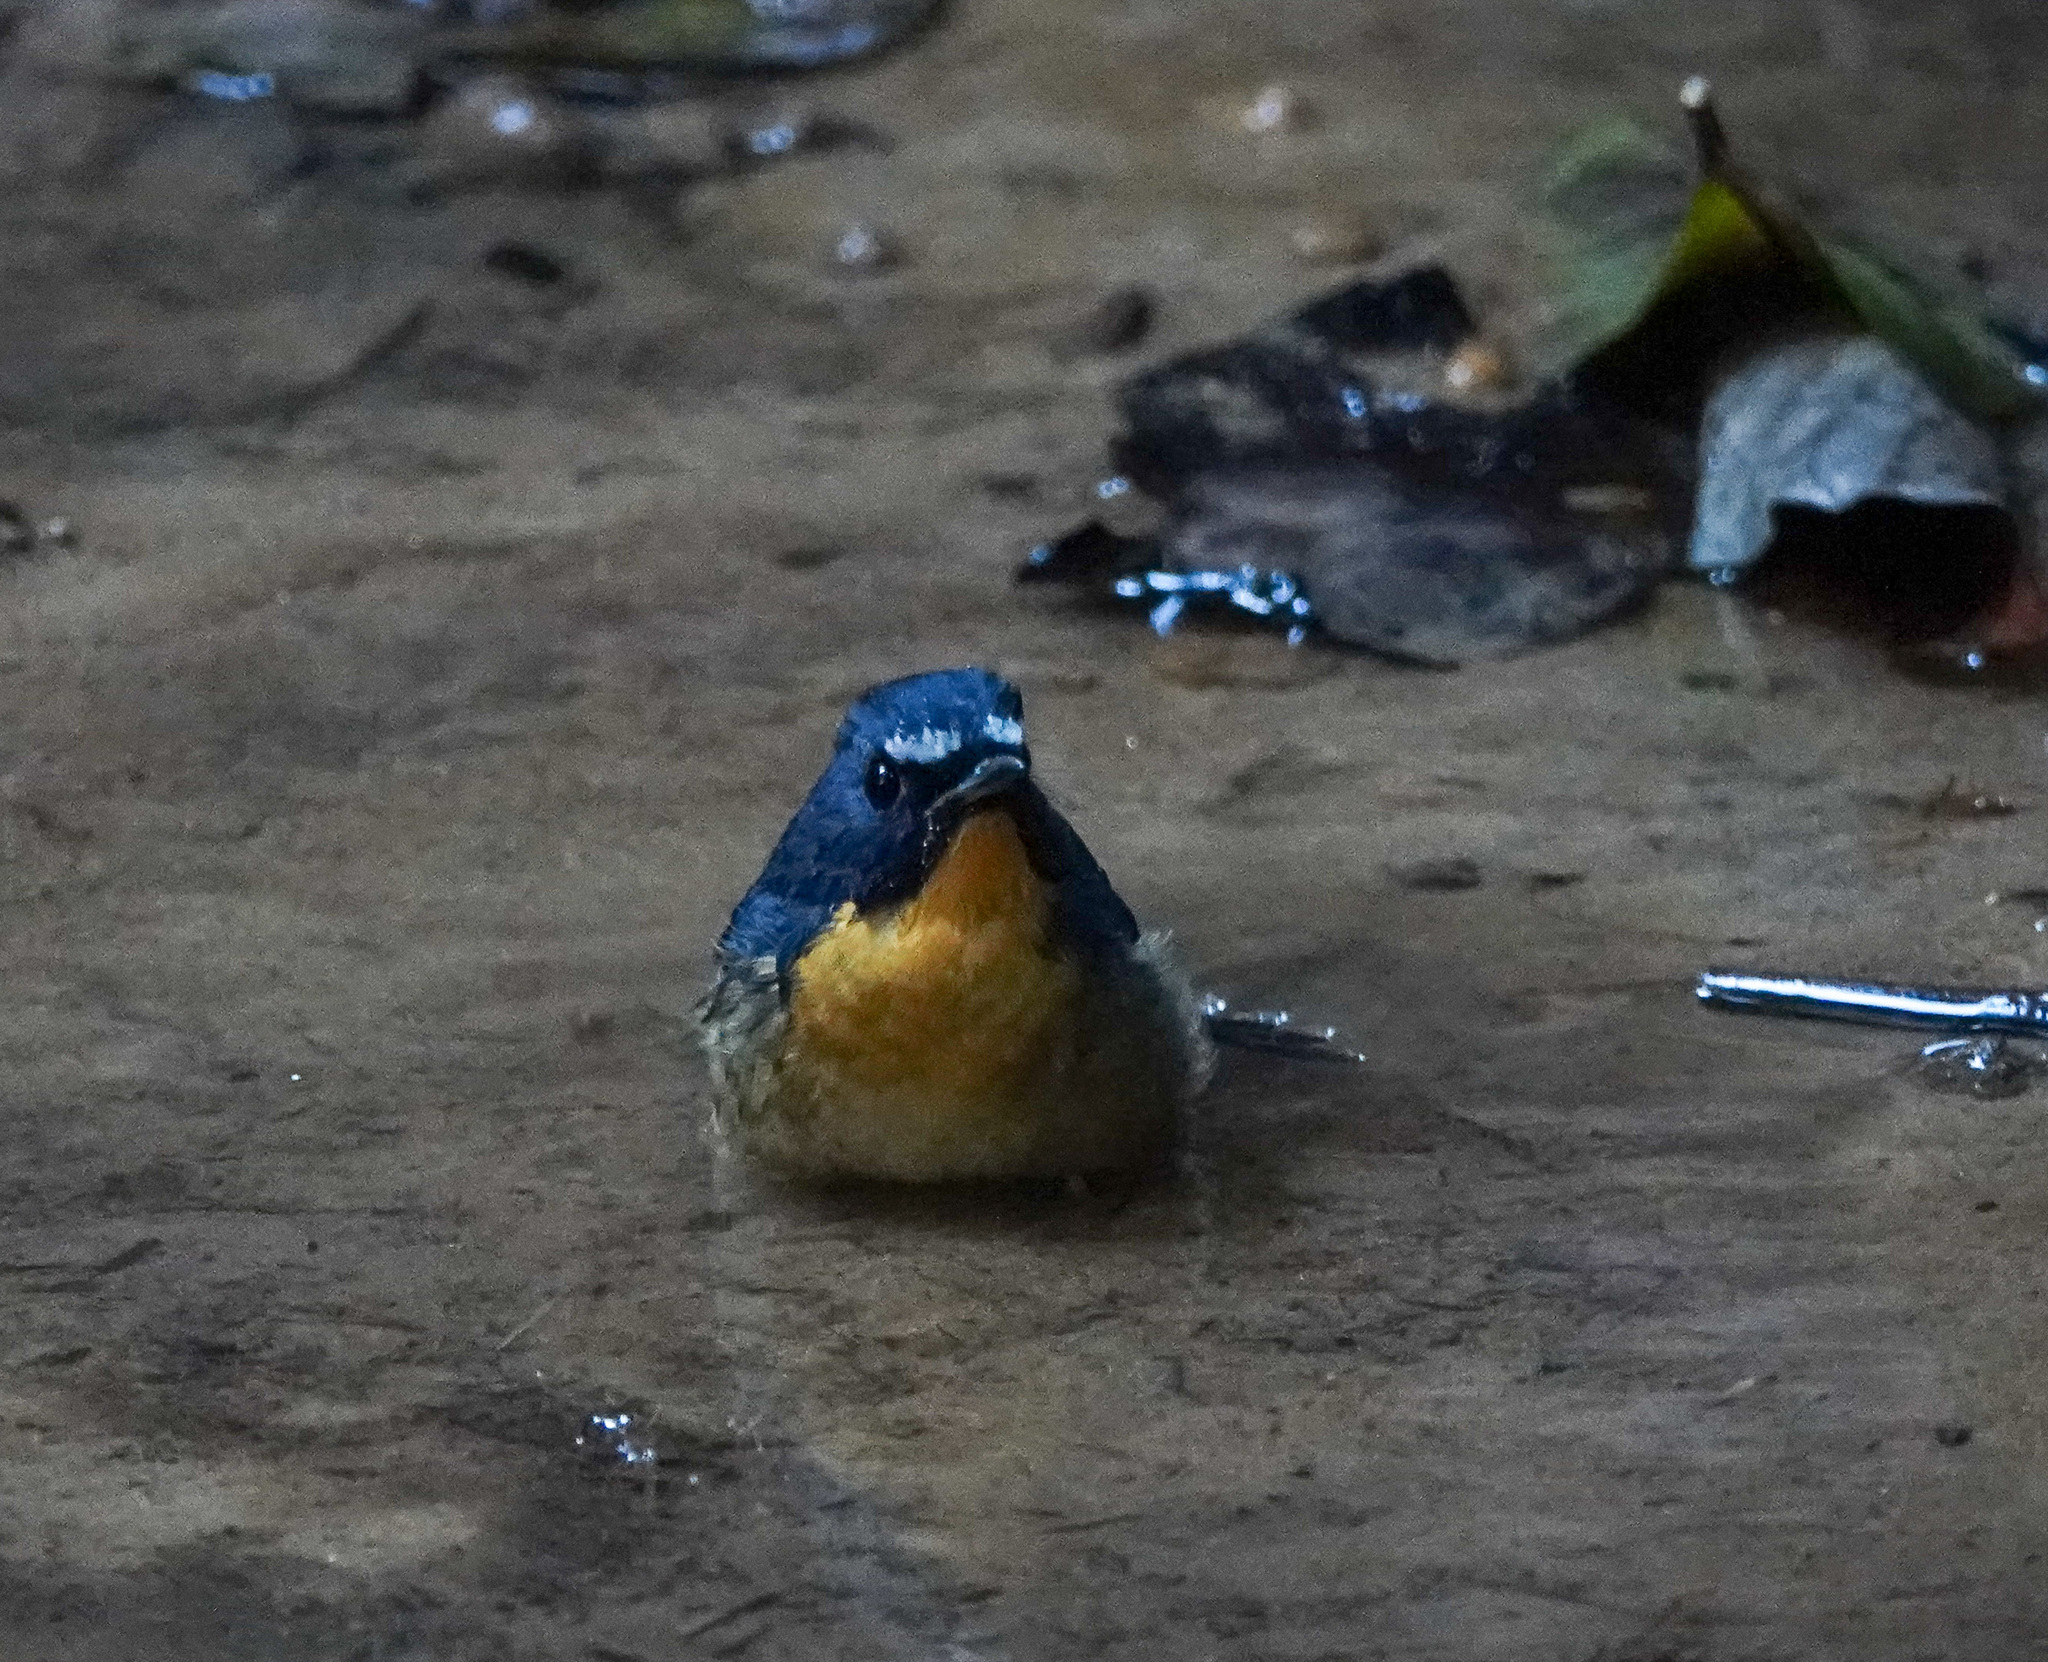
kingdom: Animalia
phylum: Chordata
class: Aves
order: Passeriformes
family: Muscicapidae
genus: Ficedula
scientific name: Ficedula hyperythra
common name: Snowy-browed flycatcher
